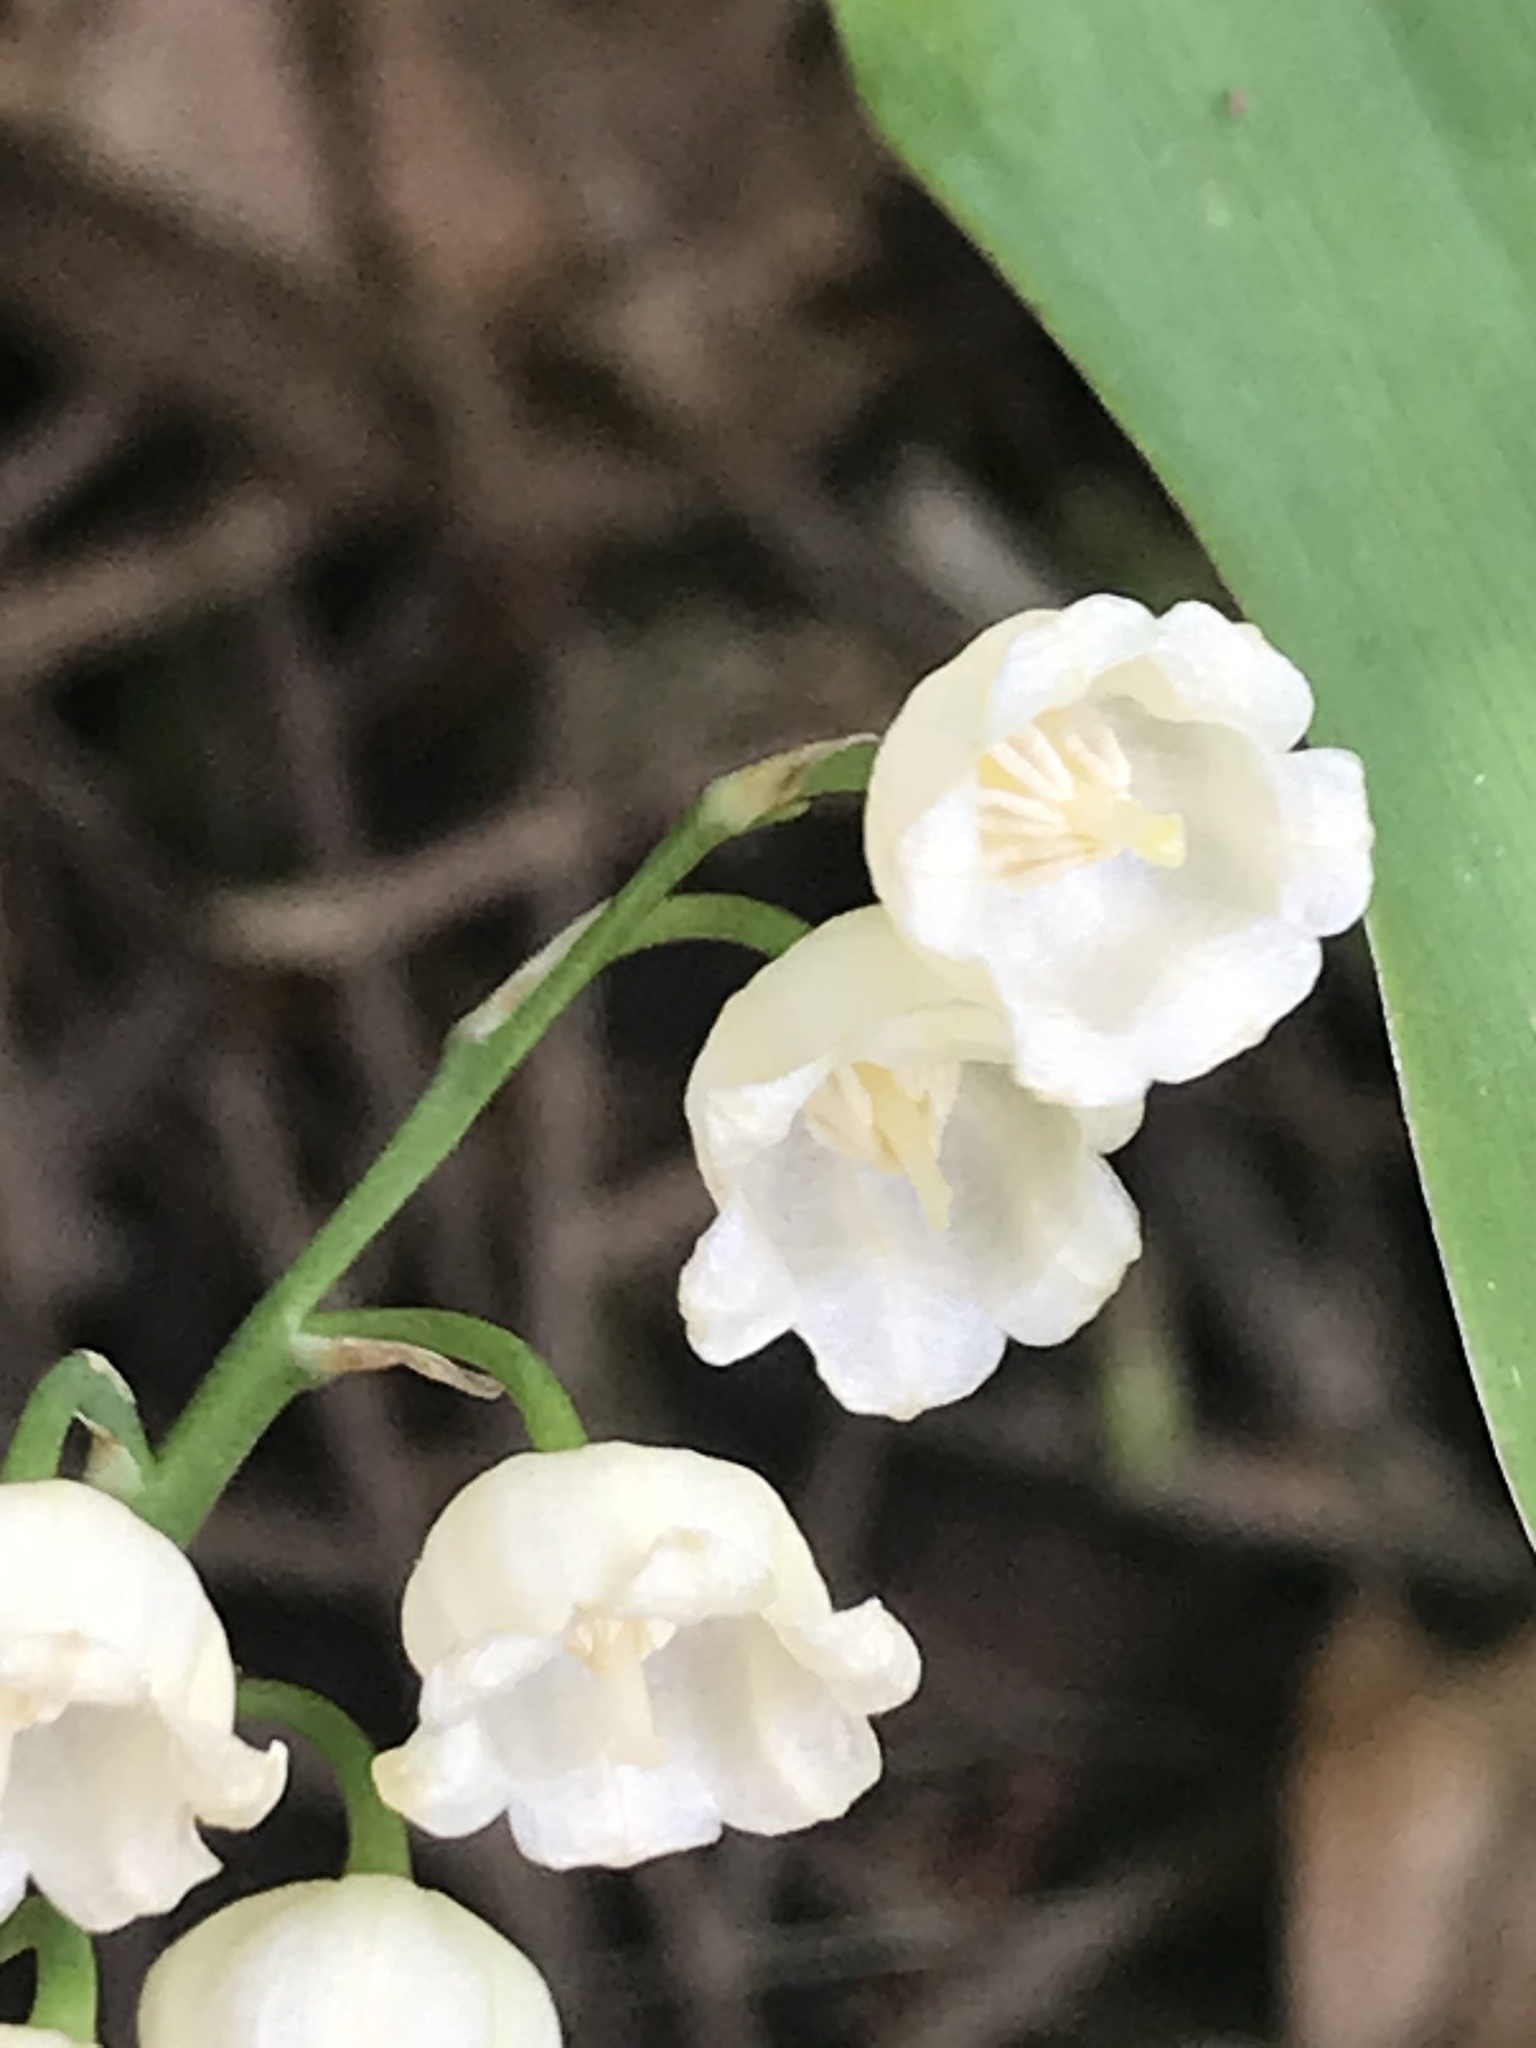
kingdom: Plantae
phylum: Tracheophyta
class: Liliopsida
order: Asparagales
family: Asparagaceae
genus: Convallaria
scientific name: Convallaria majalis
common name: Lily-of-the-valley
